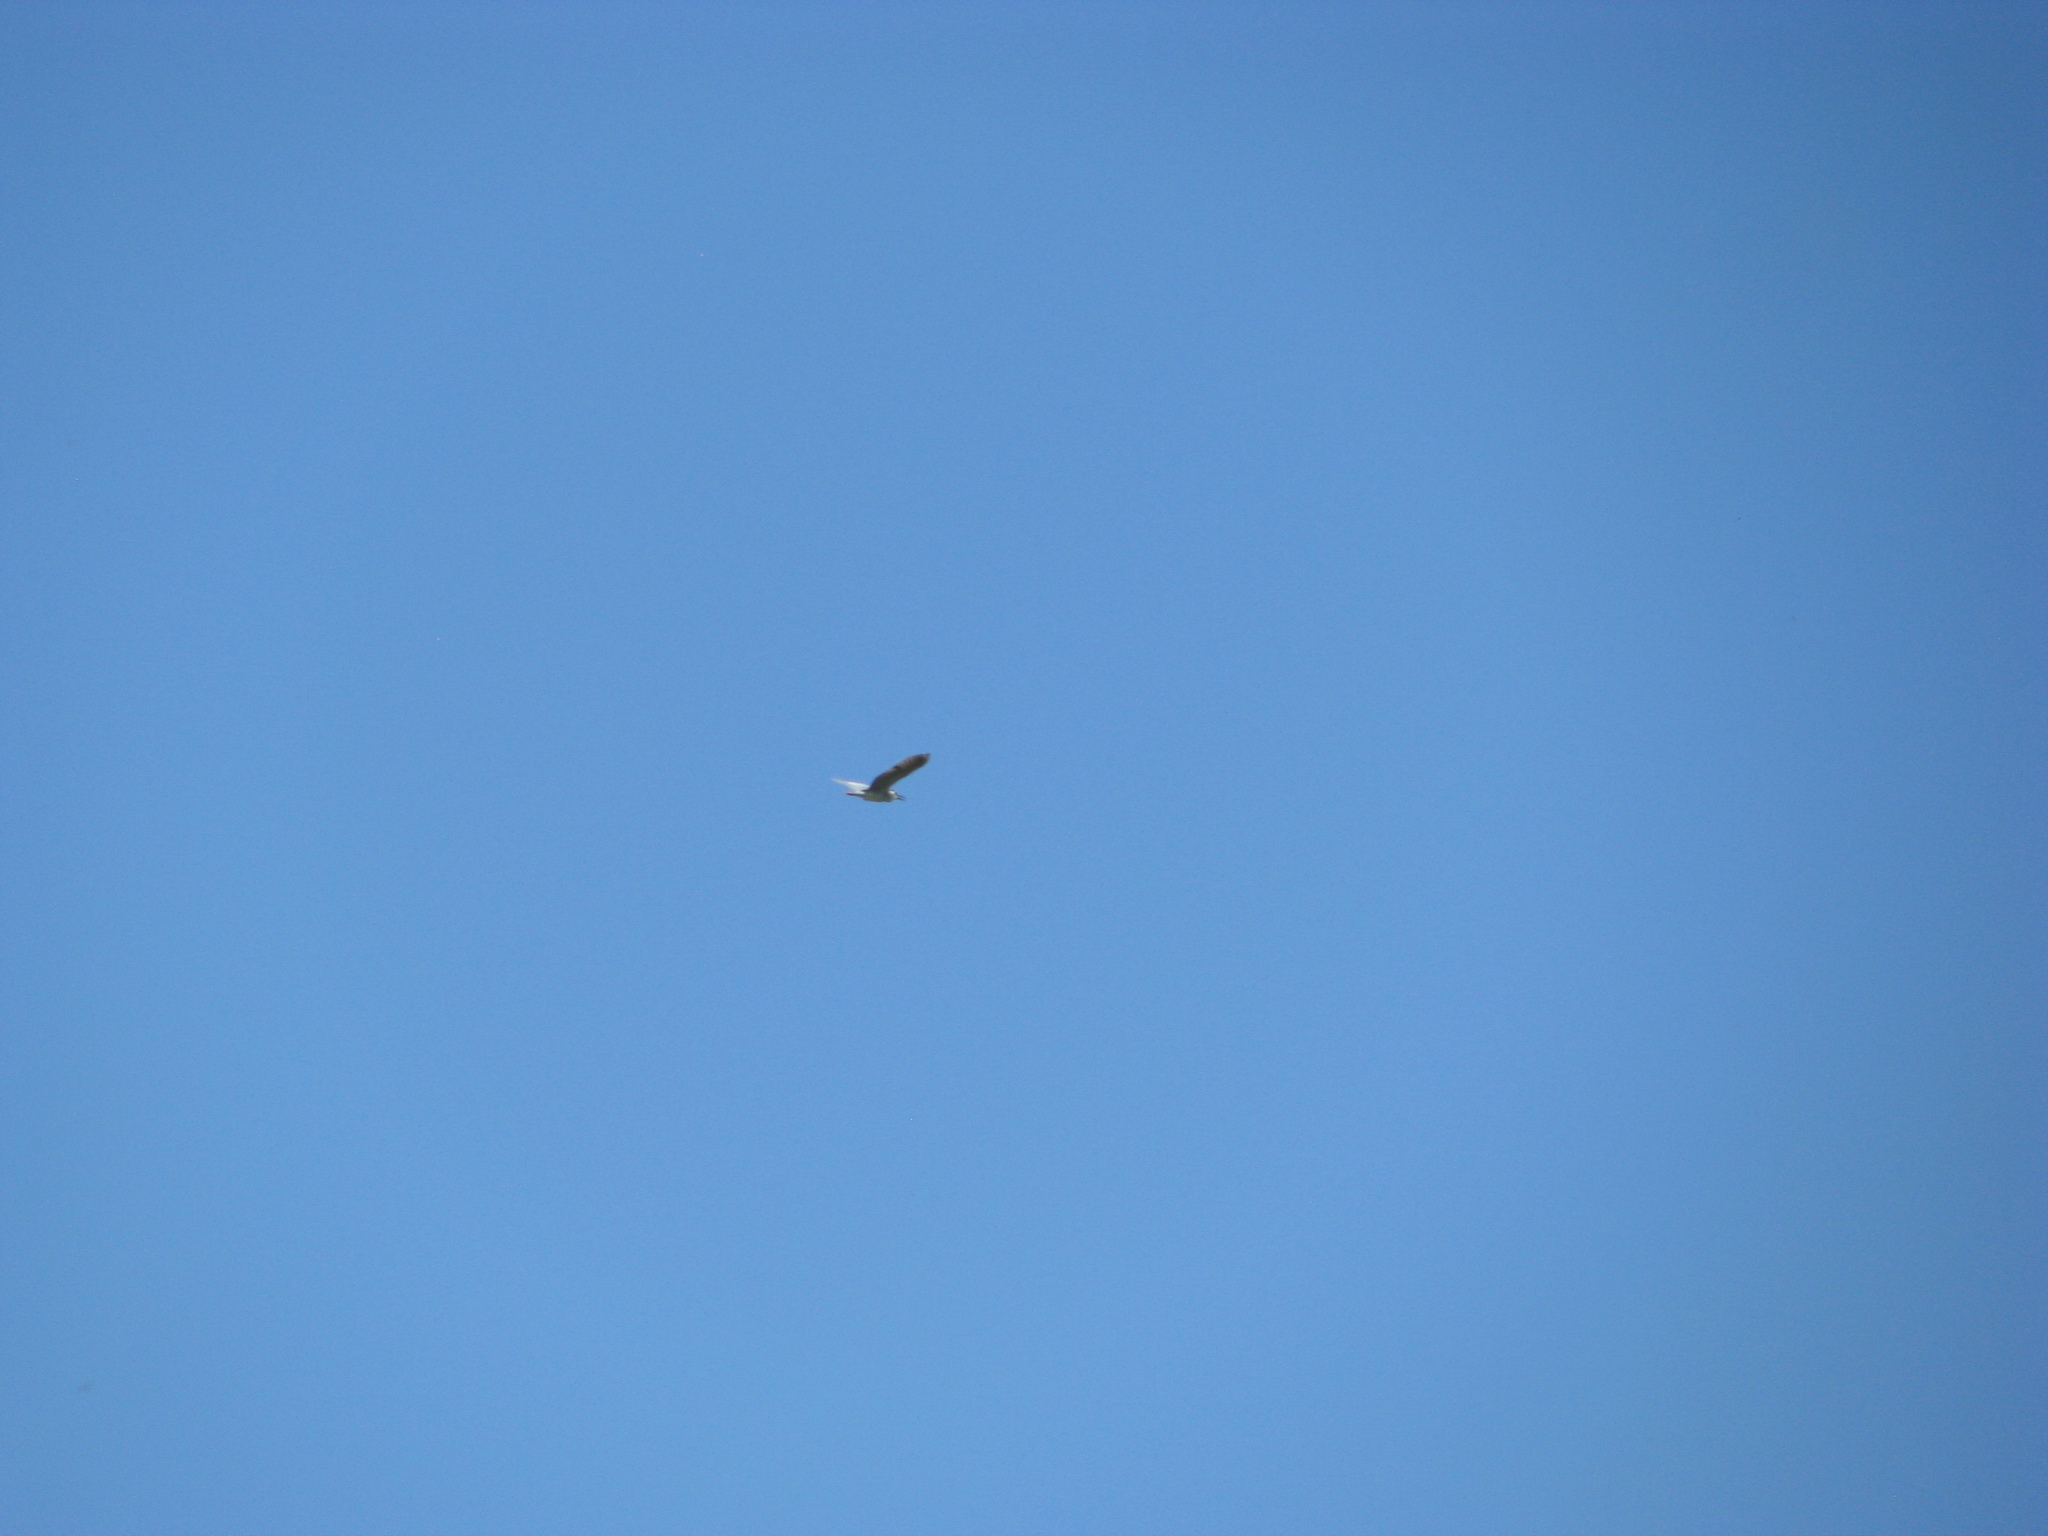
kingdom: Animalia
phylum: Chordata
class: Aves
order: Pelecaniformes
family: Ardeidae
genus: Nycticorax
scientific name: Nycticorax nycticorax
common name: Black-crowned night heron
